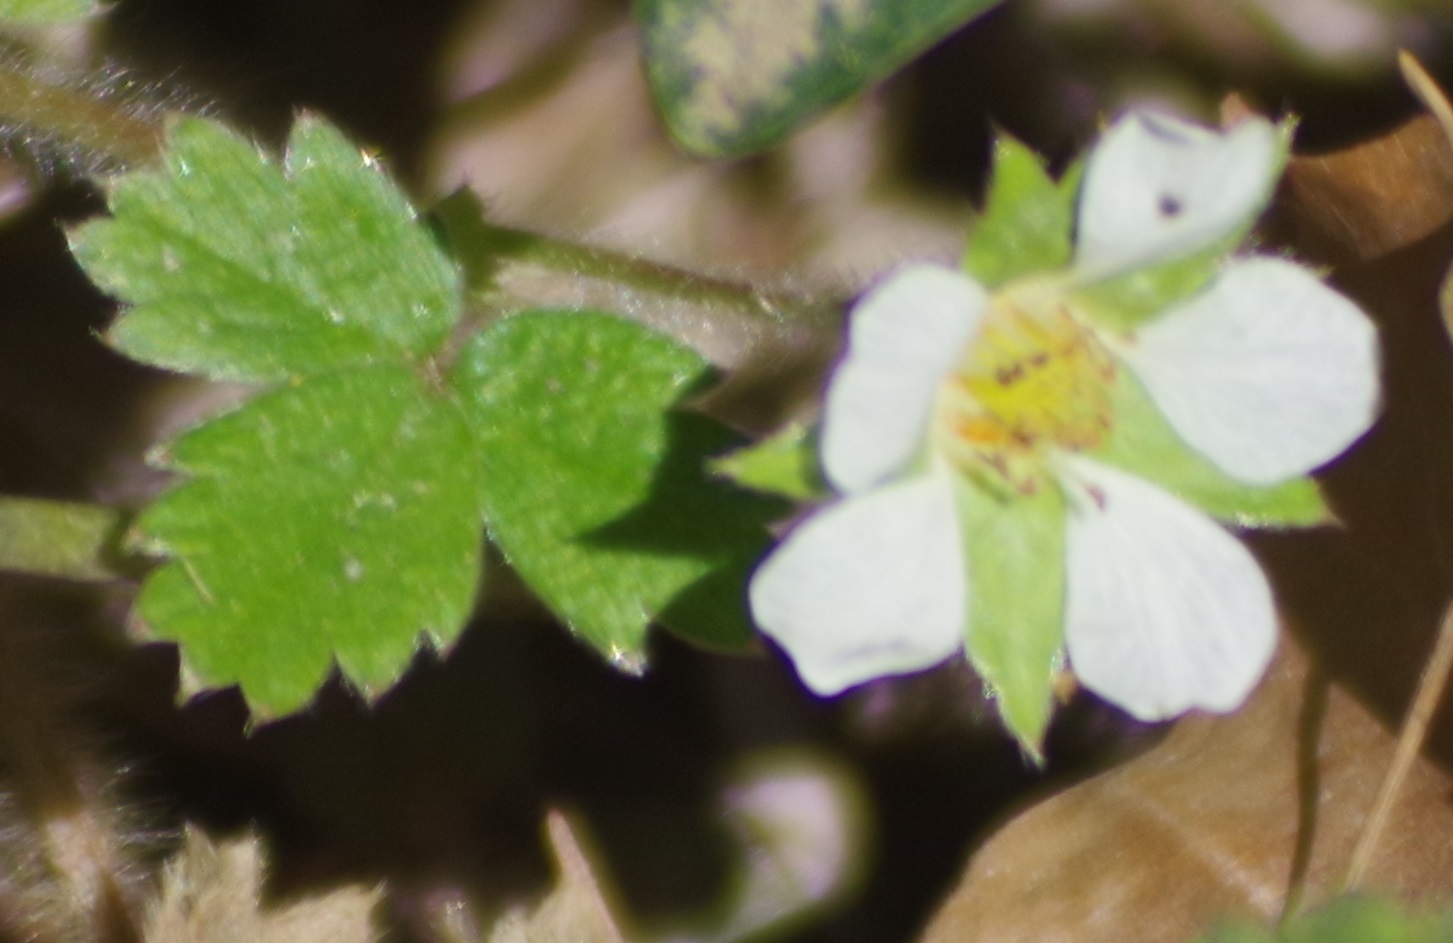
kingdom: Plantae
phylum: Tracheophyta
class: Magnoliopsida
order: Rosales
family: Rosaceae
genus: Potentilla
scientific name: Potentilla sterilis
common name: Barren strawberry
